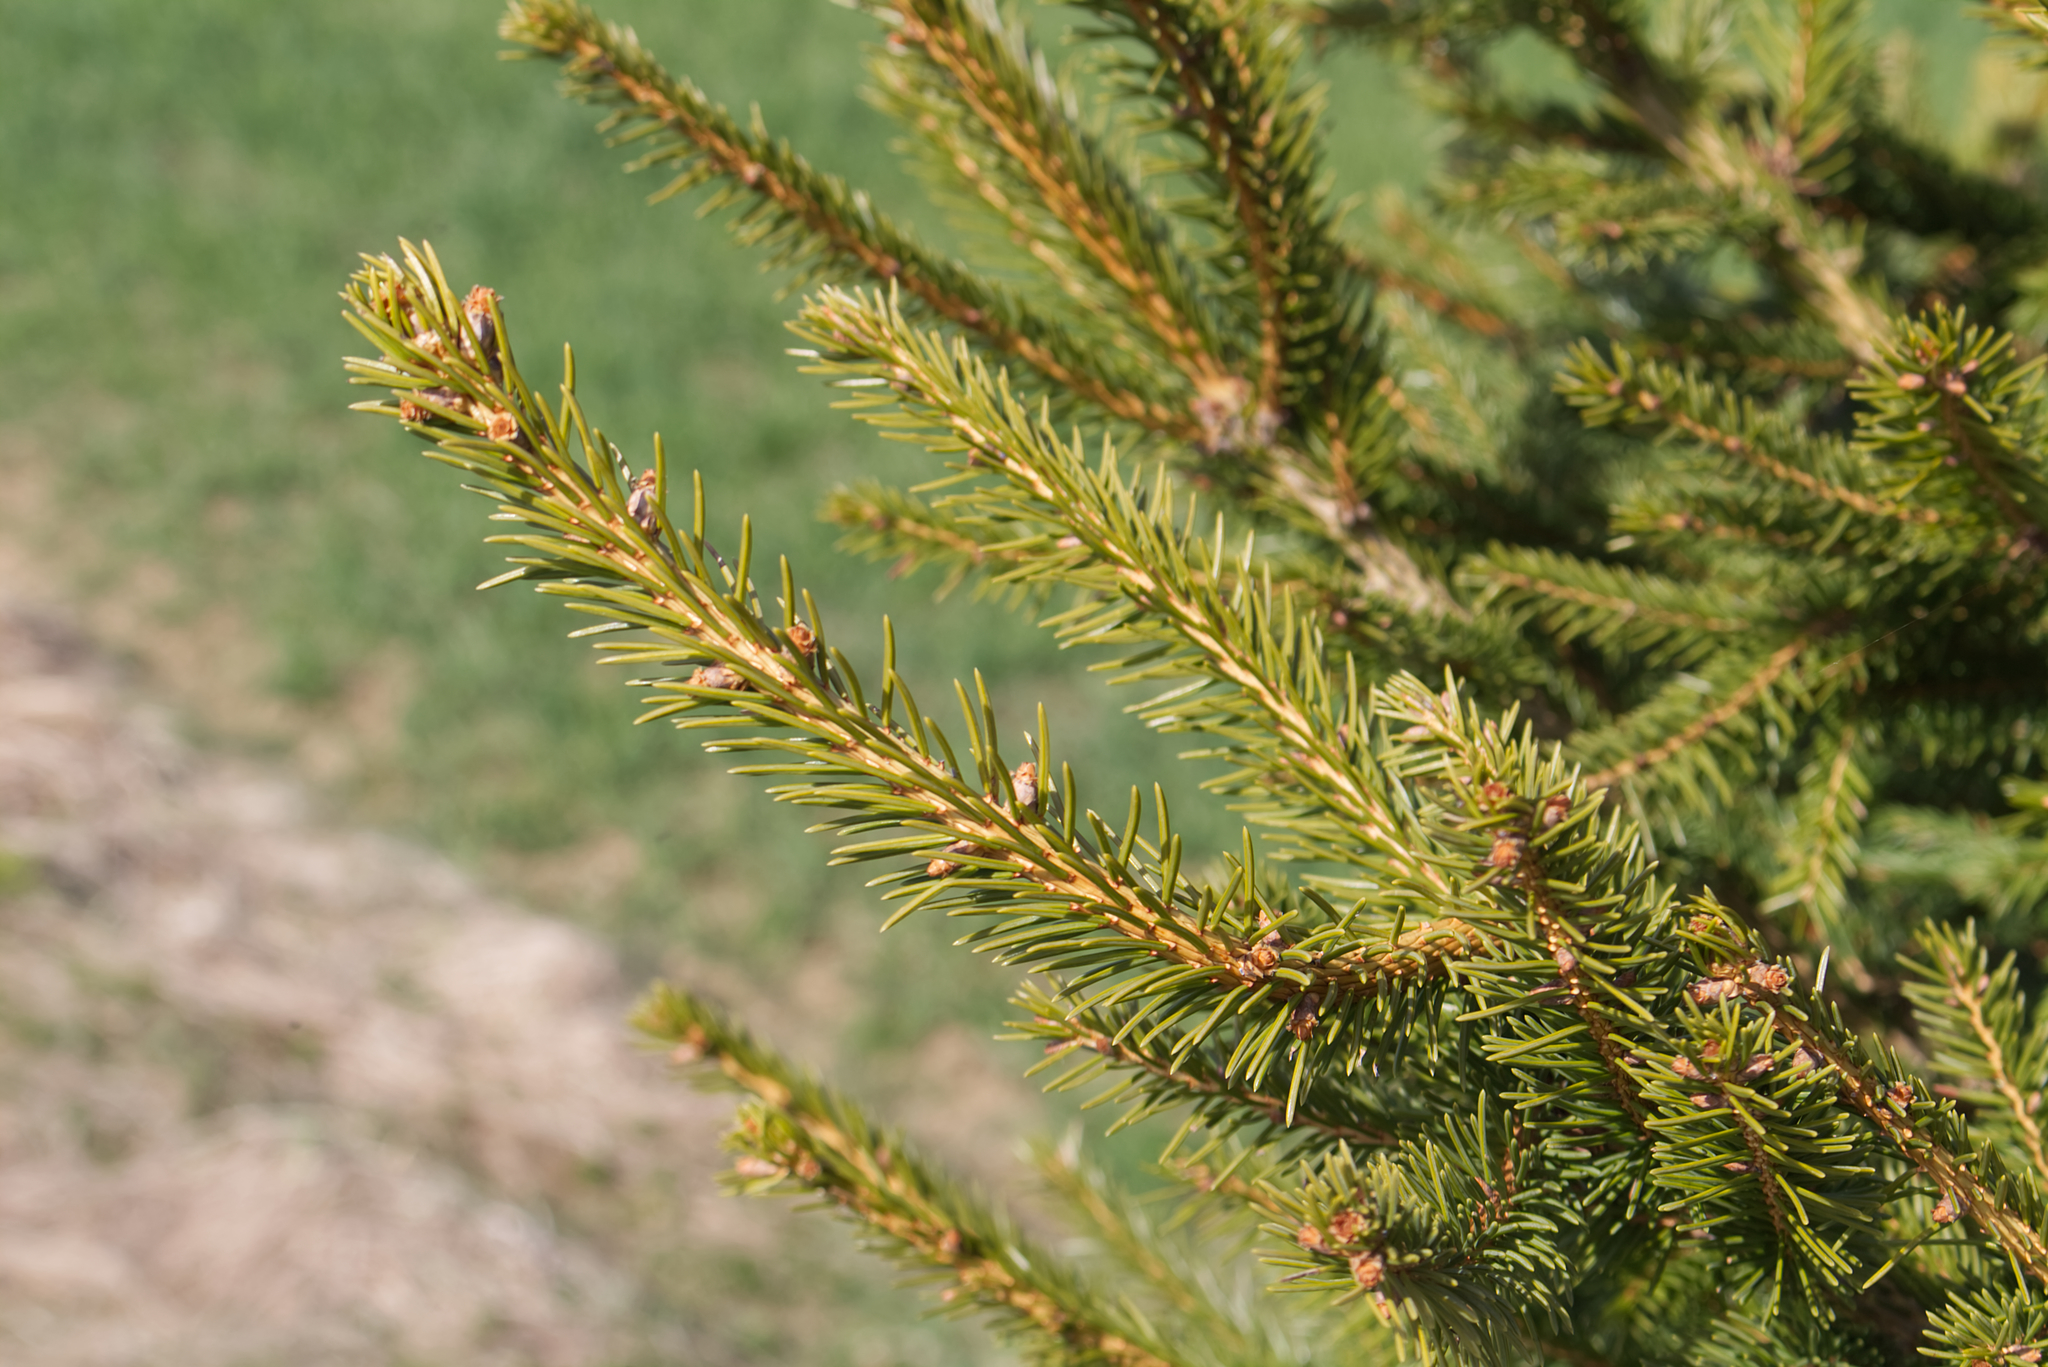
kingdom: Plantae
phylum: Tracheophyta
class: Pinopsida
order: Pinales
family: Pinaceae
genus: Picea
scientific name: Picea abies
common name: Norway spruce
